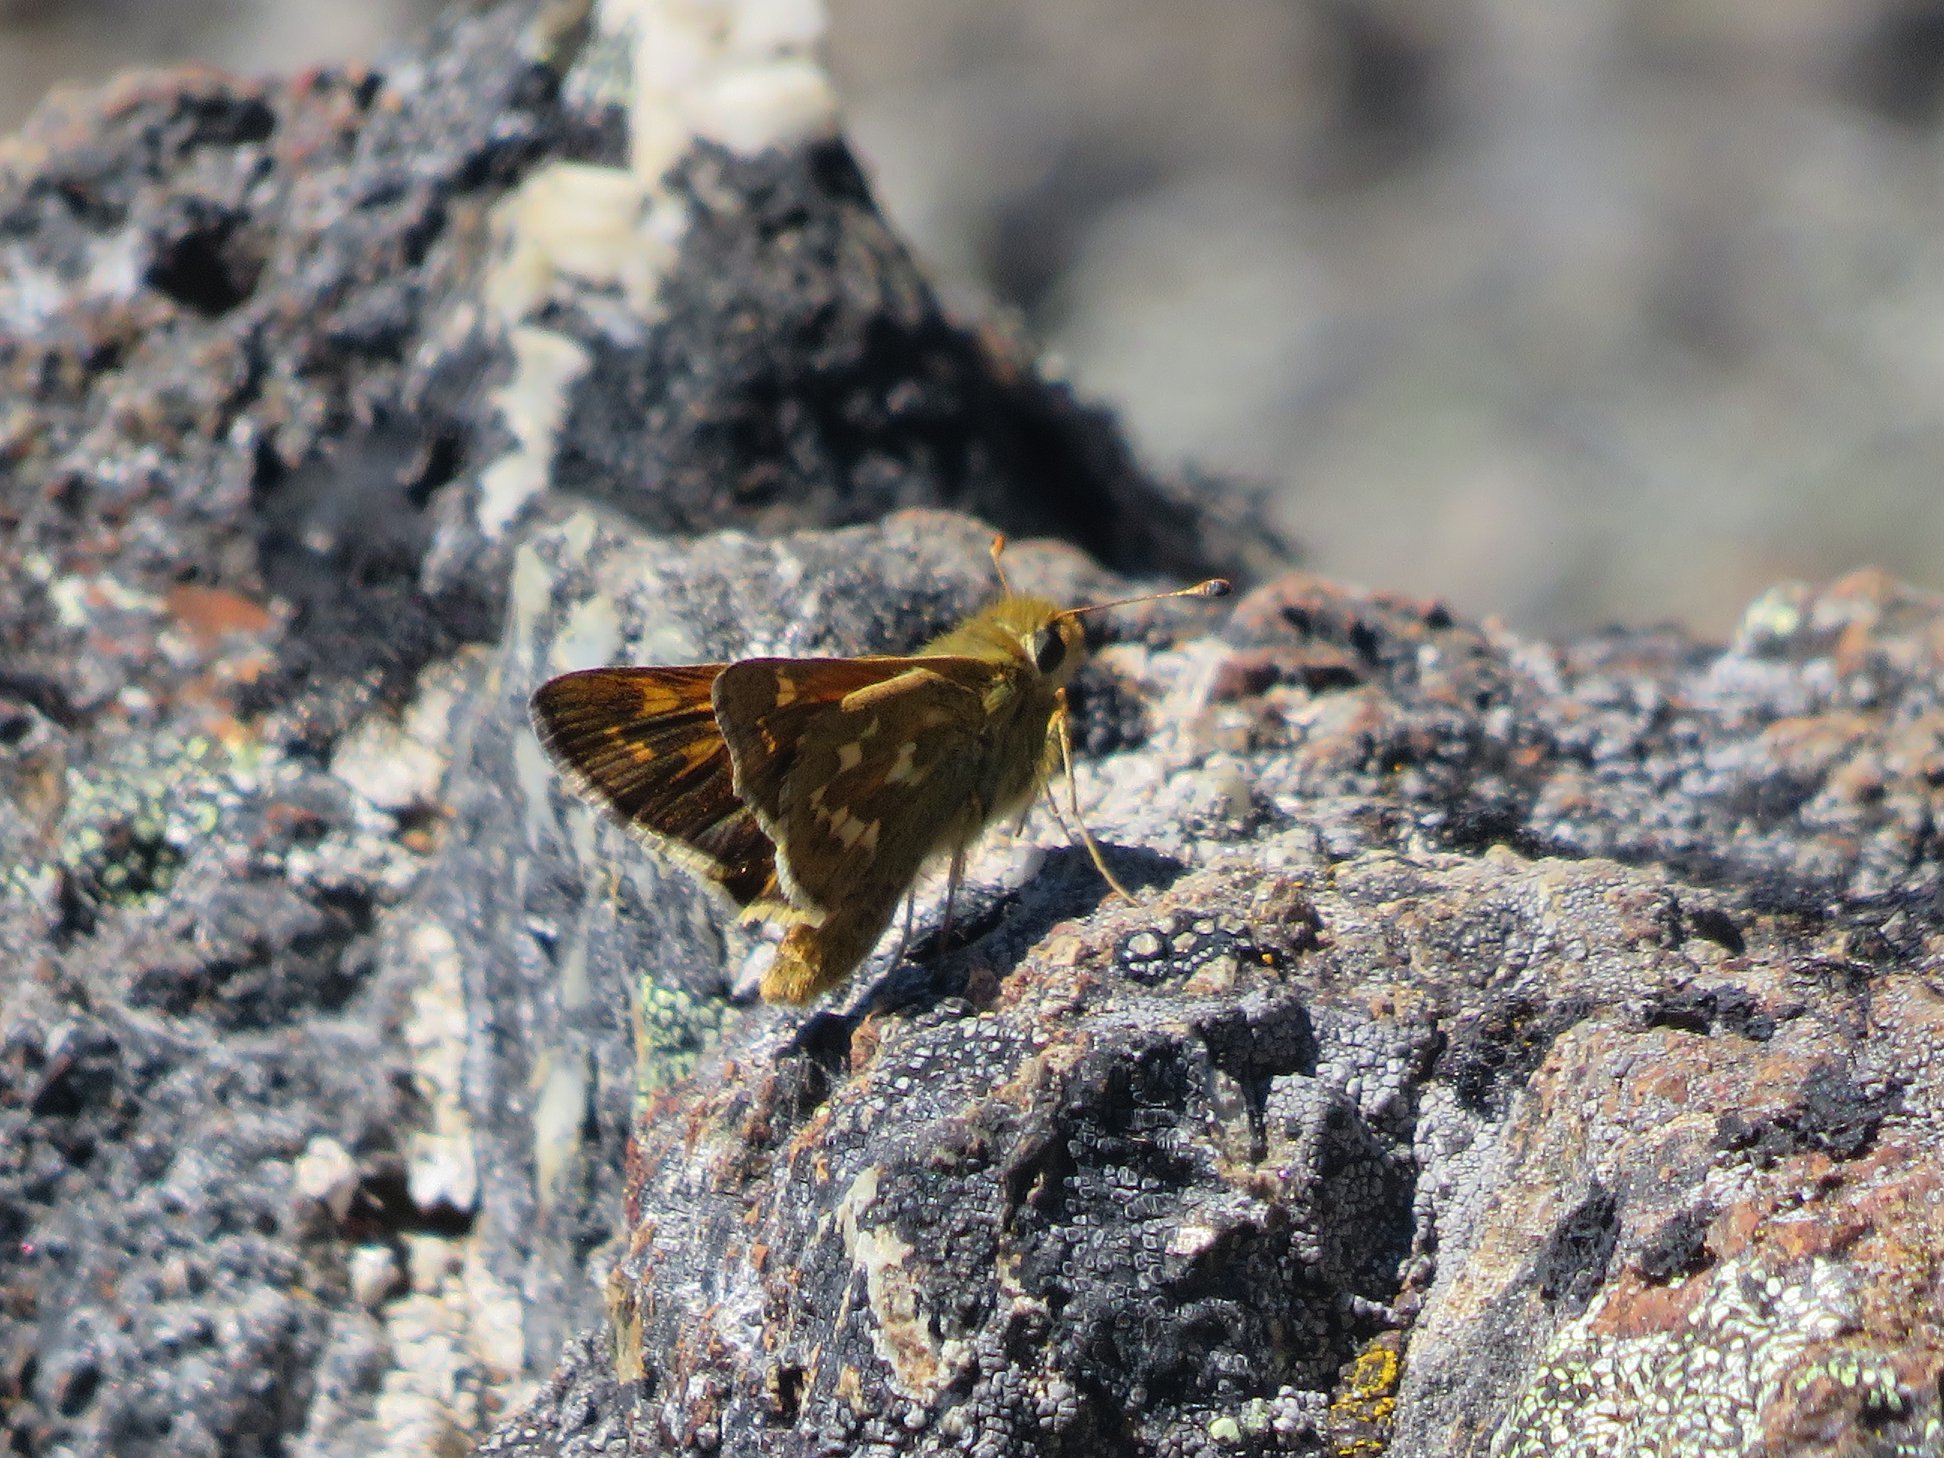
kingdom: Animalia
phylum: Arthropoda
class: Insecta
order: Lepidoptera
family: Hesperiidae
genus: Hesperia
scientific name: Hesperia comma
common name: Common branded skipper
